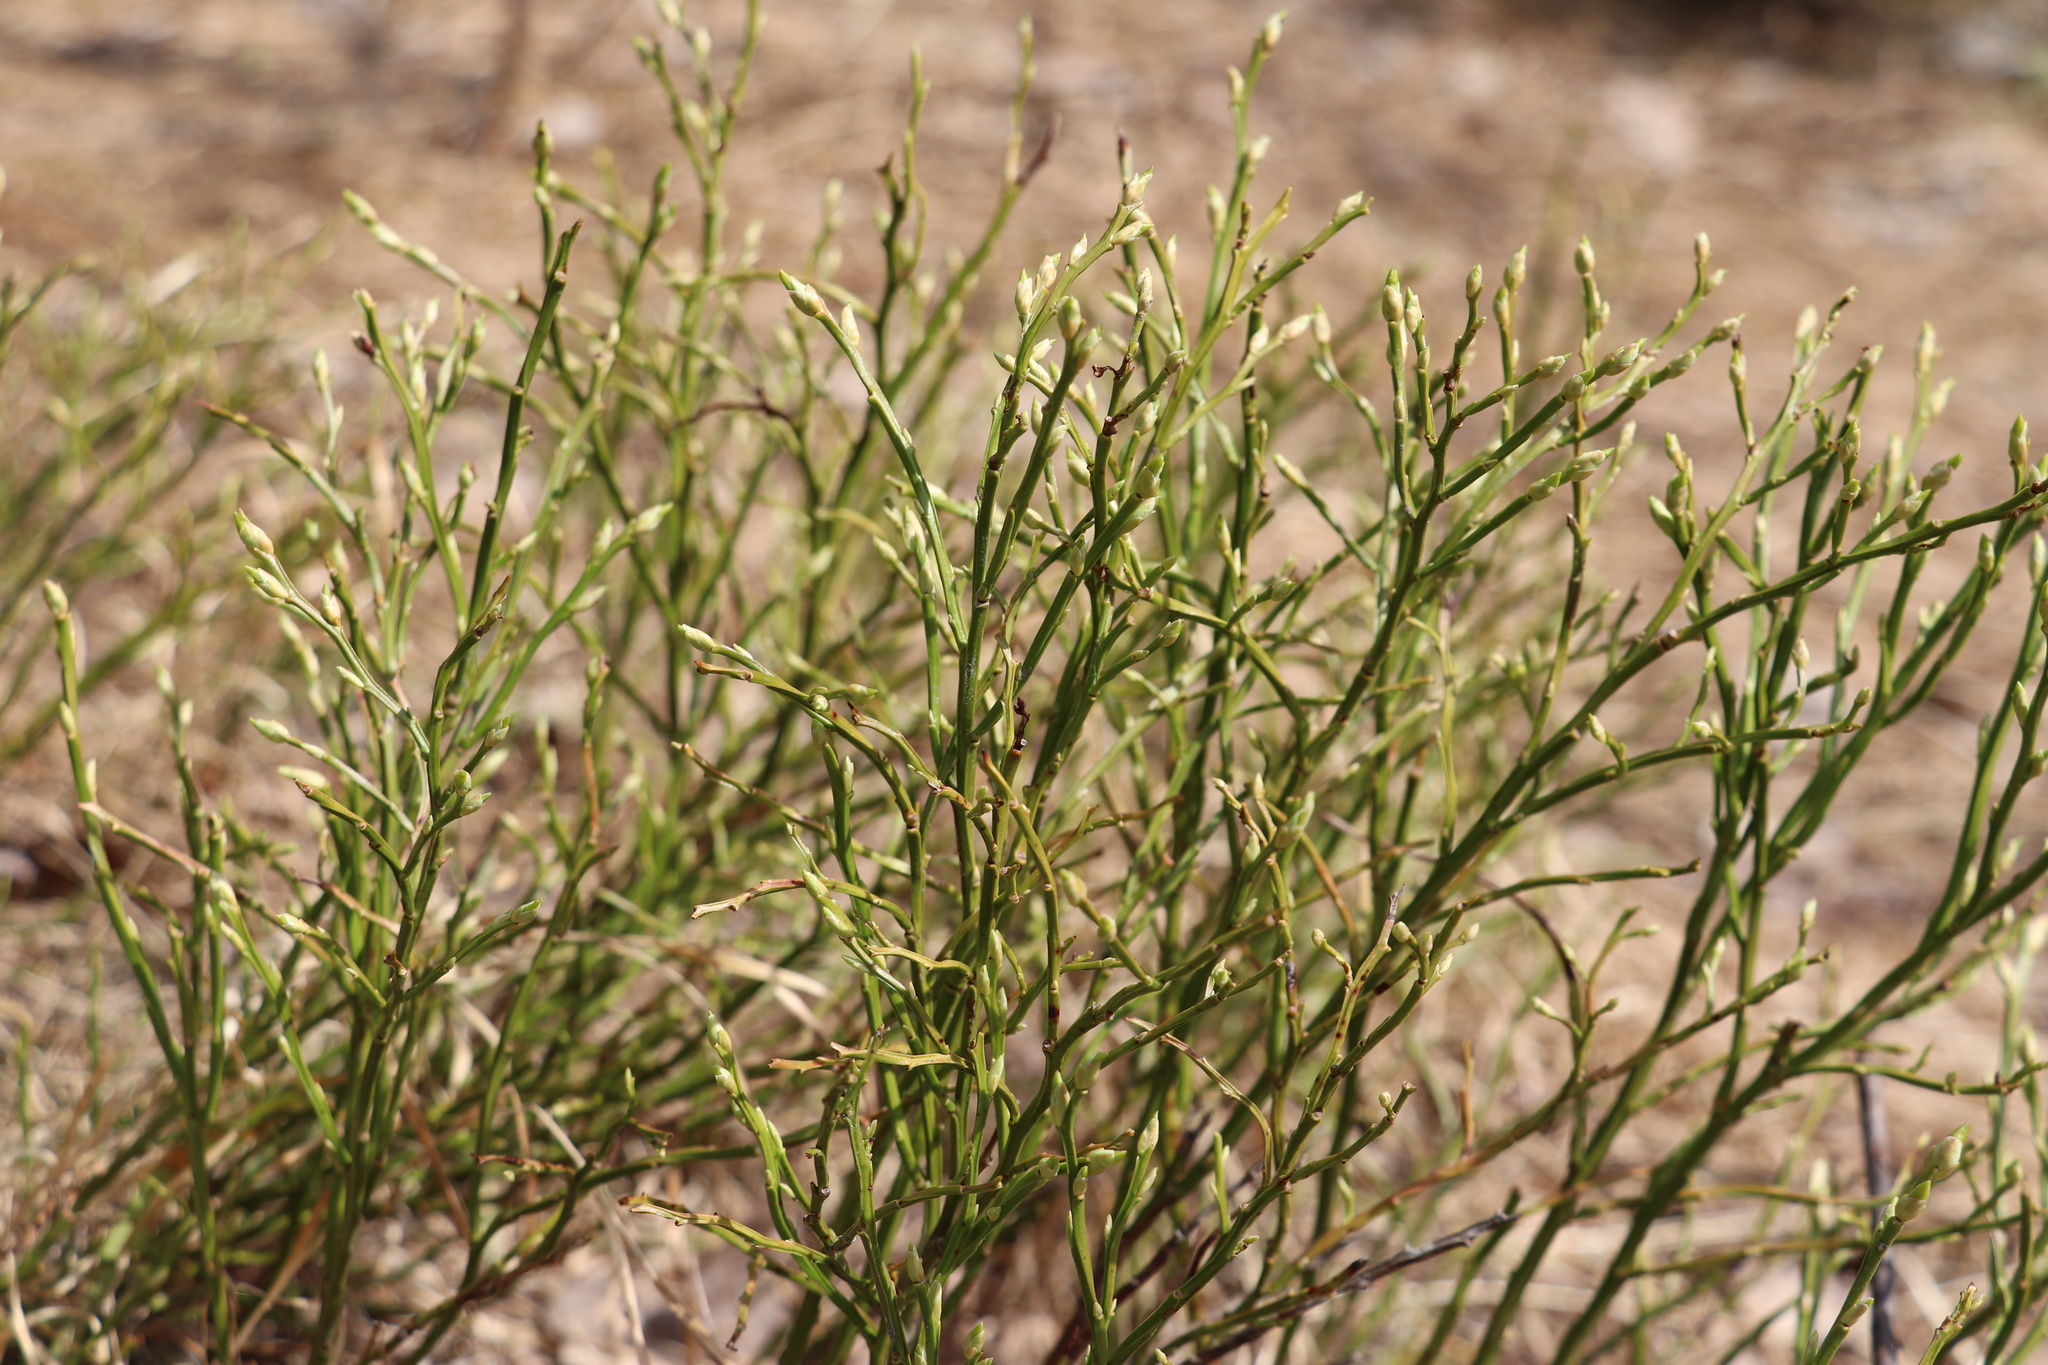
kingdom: Plantae
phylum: Tracheophyta
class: Magnoliopsida
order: Ericales
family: Ericaceae
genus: Vaccinium
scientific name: Vaccinium myrtillus
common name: Bilberry
